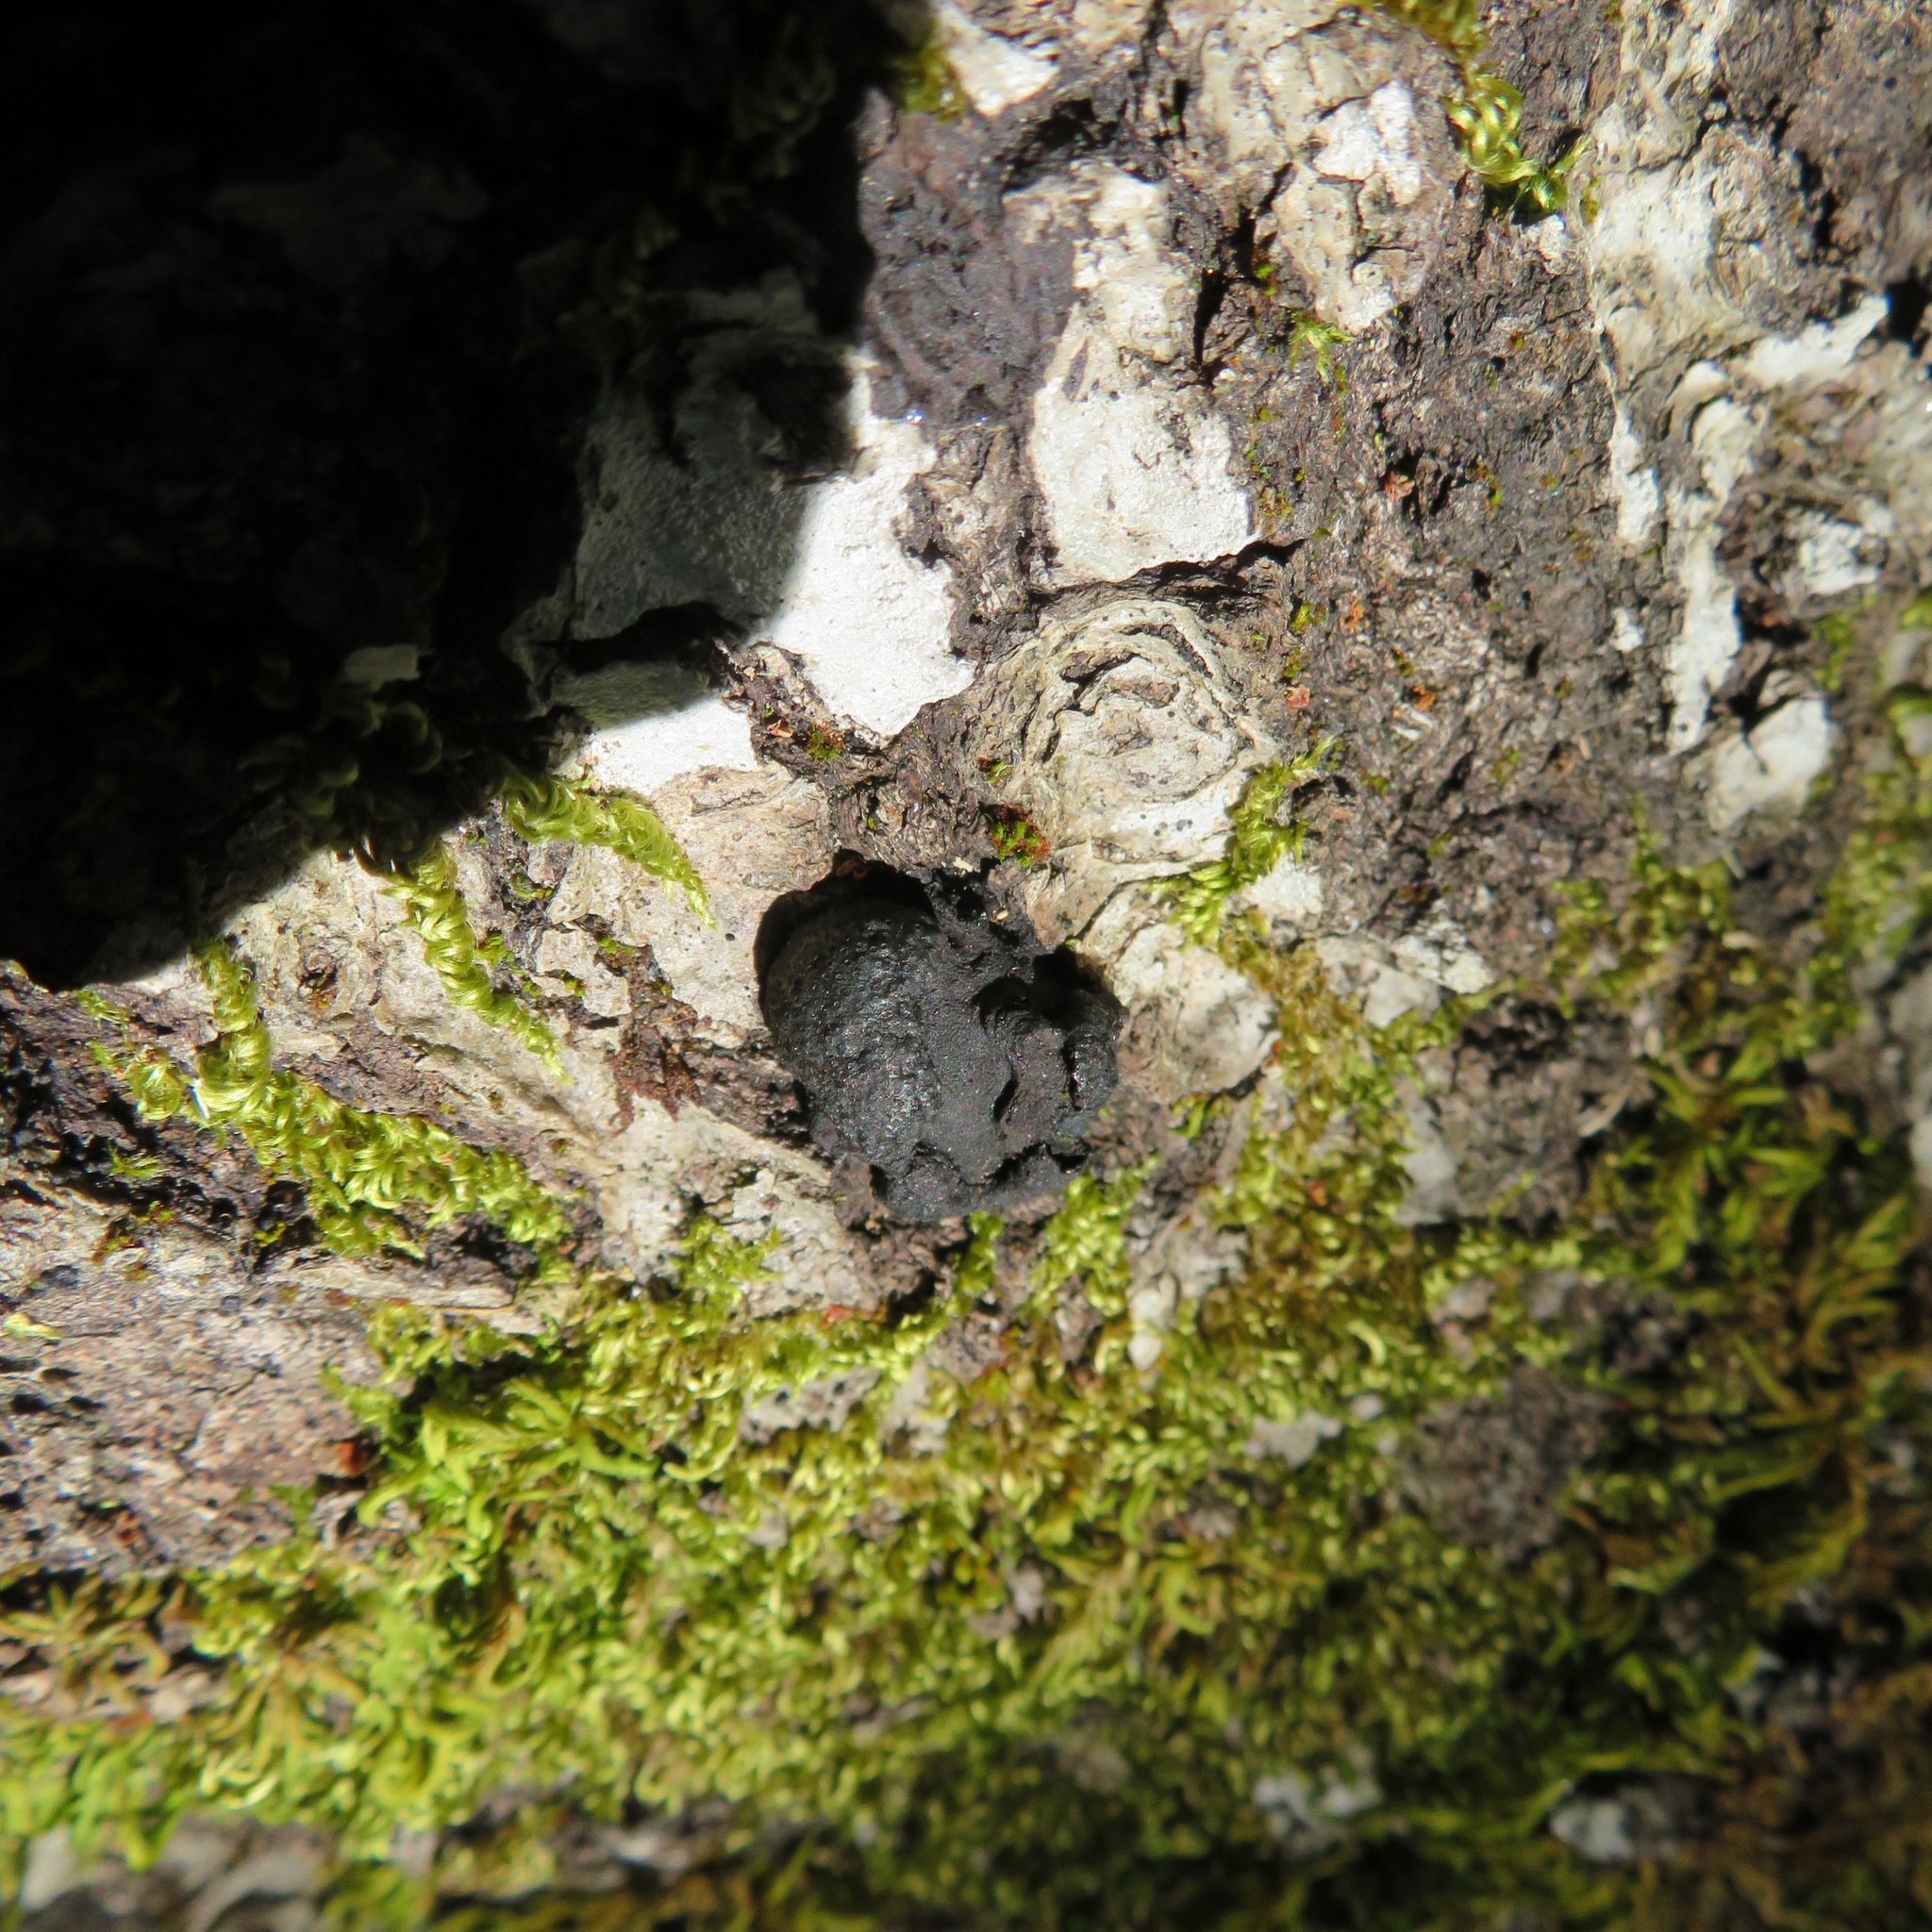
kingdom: Fungi
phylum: Ascomycota
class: Sordariomycetes
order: Xylariales
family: Hypoxylaceae
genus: Annulohypoxylon
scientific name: Annulohypoxylon thouarsianum
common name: Cramp balls
